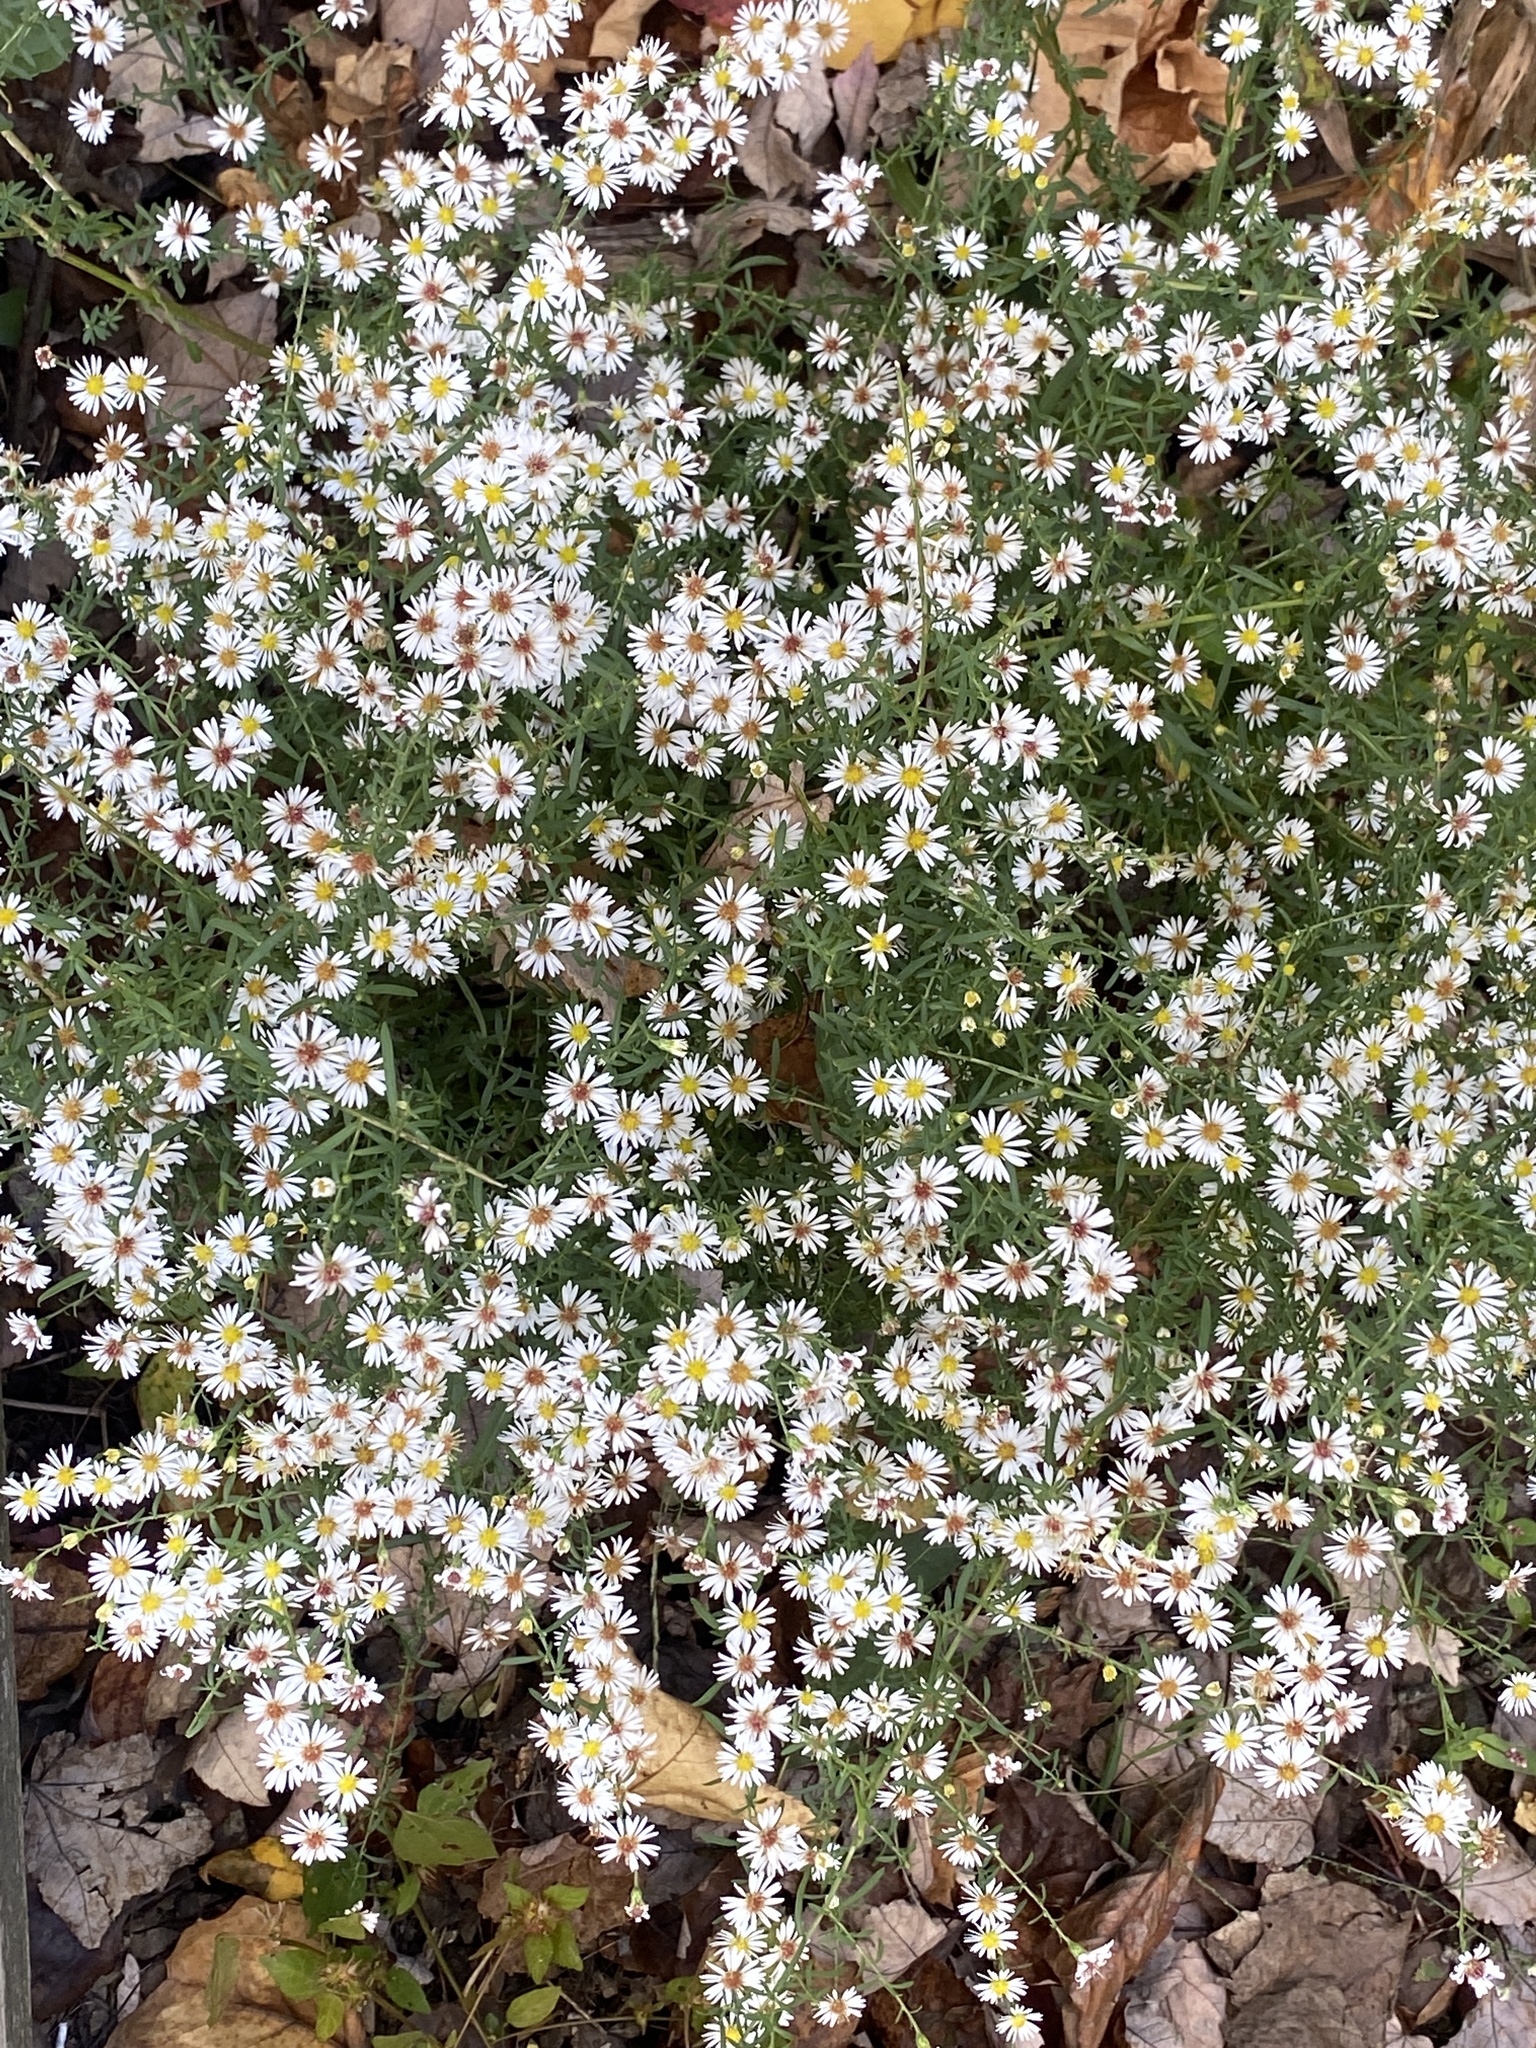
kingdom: Plantae
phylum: Tracheophyta
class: Magnoliopsida
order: Asterales
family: Asteraceae
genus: Symphyotrichum
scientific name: Symphyotrichum racemosum
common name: Small white aster
